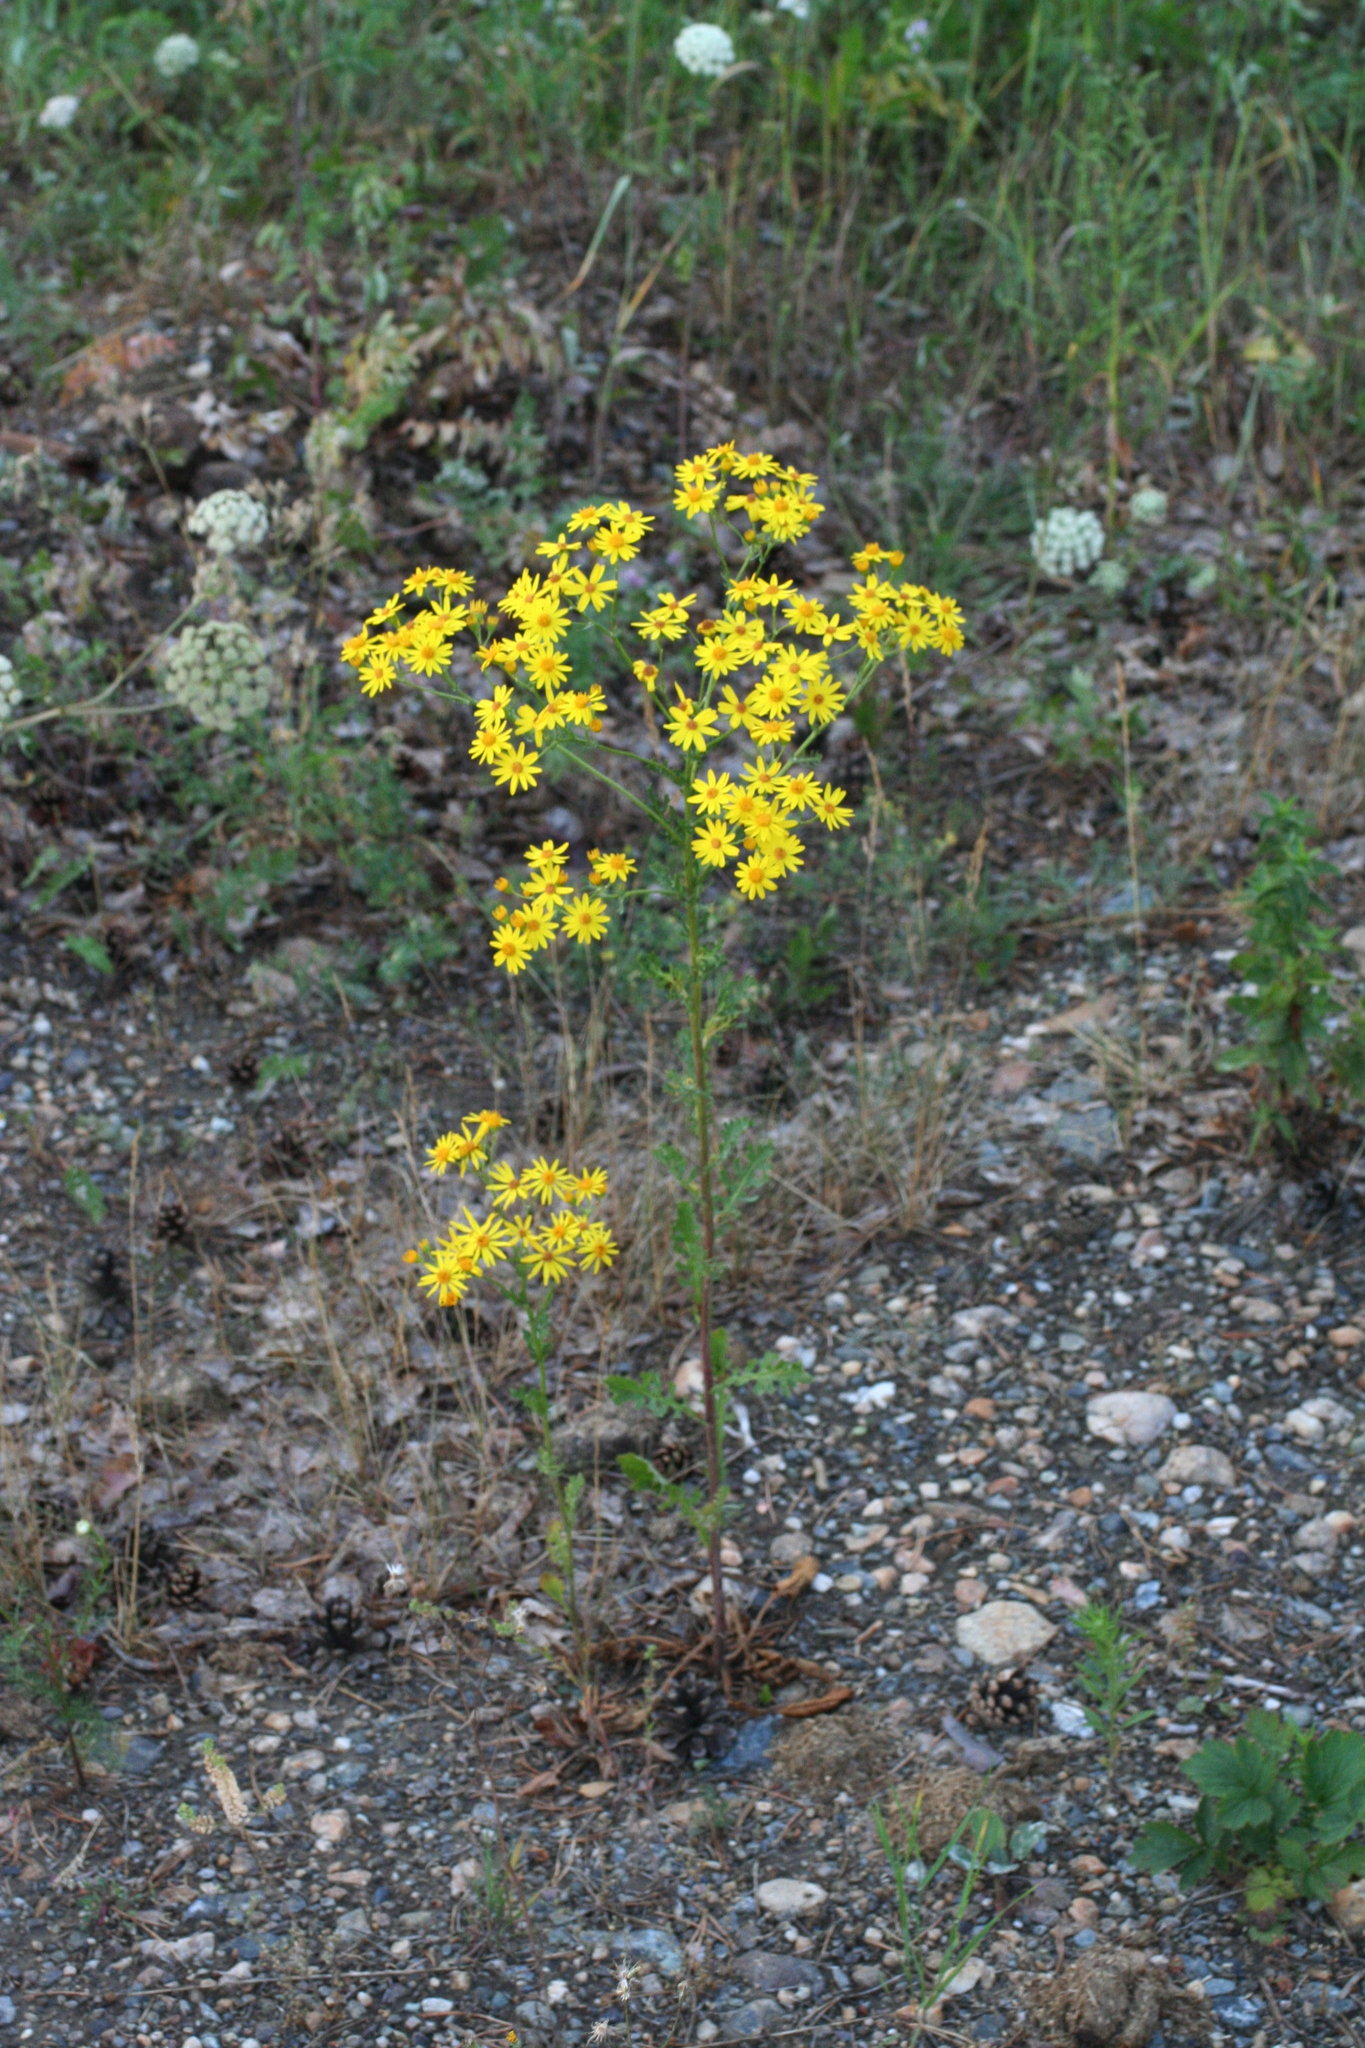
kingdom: Plantae
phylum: Tracheophyta
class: Magnoliopsida
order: Asterales
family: Asteraceae
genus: Jacobaea
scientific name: Jacobaea vulgaris
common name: Stinking willie
